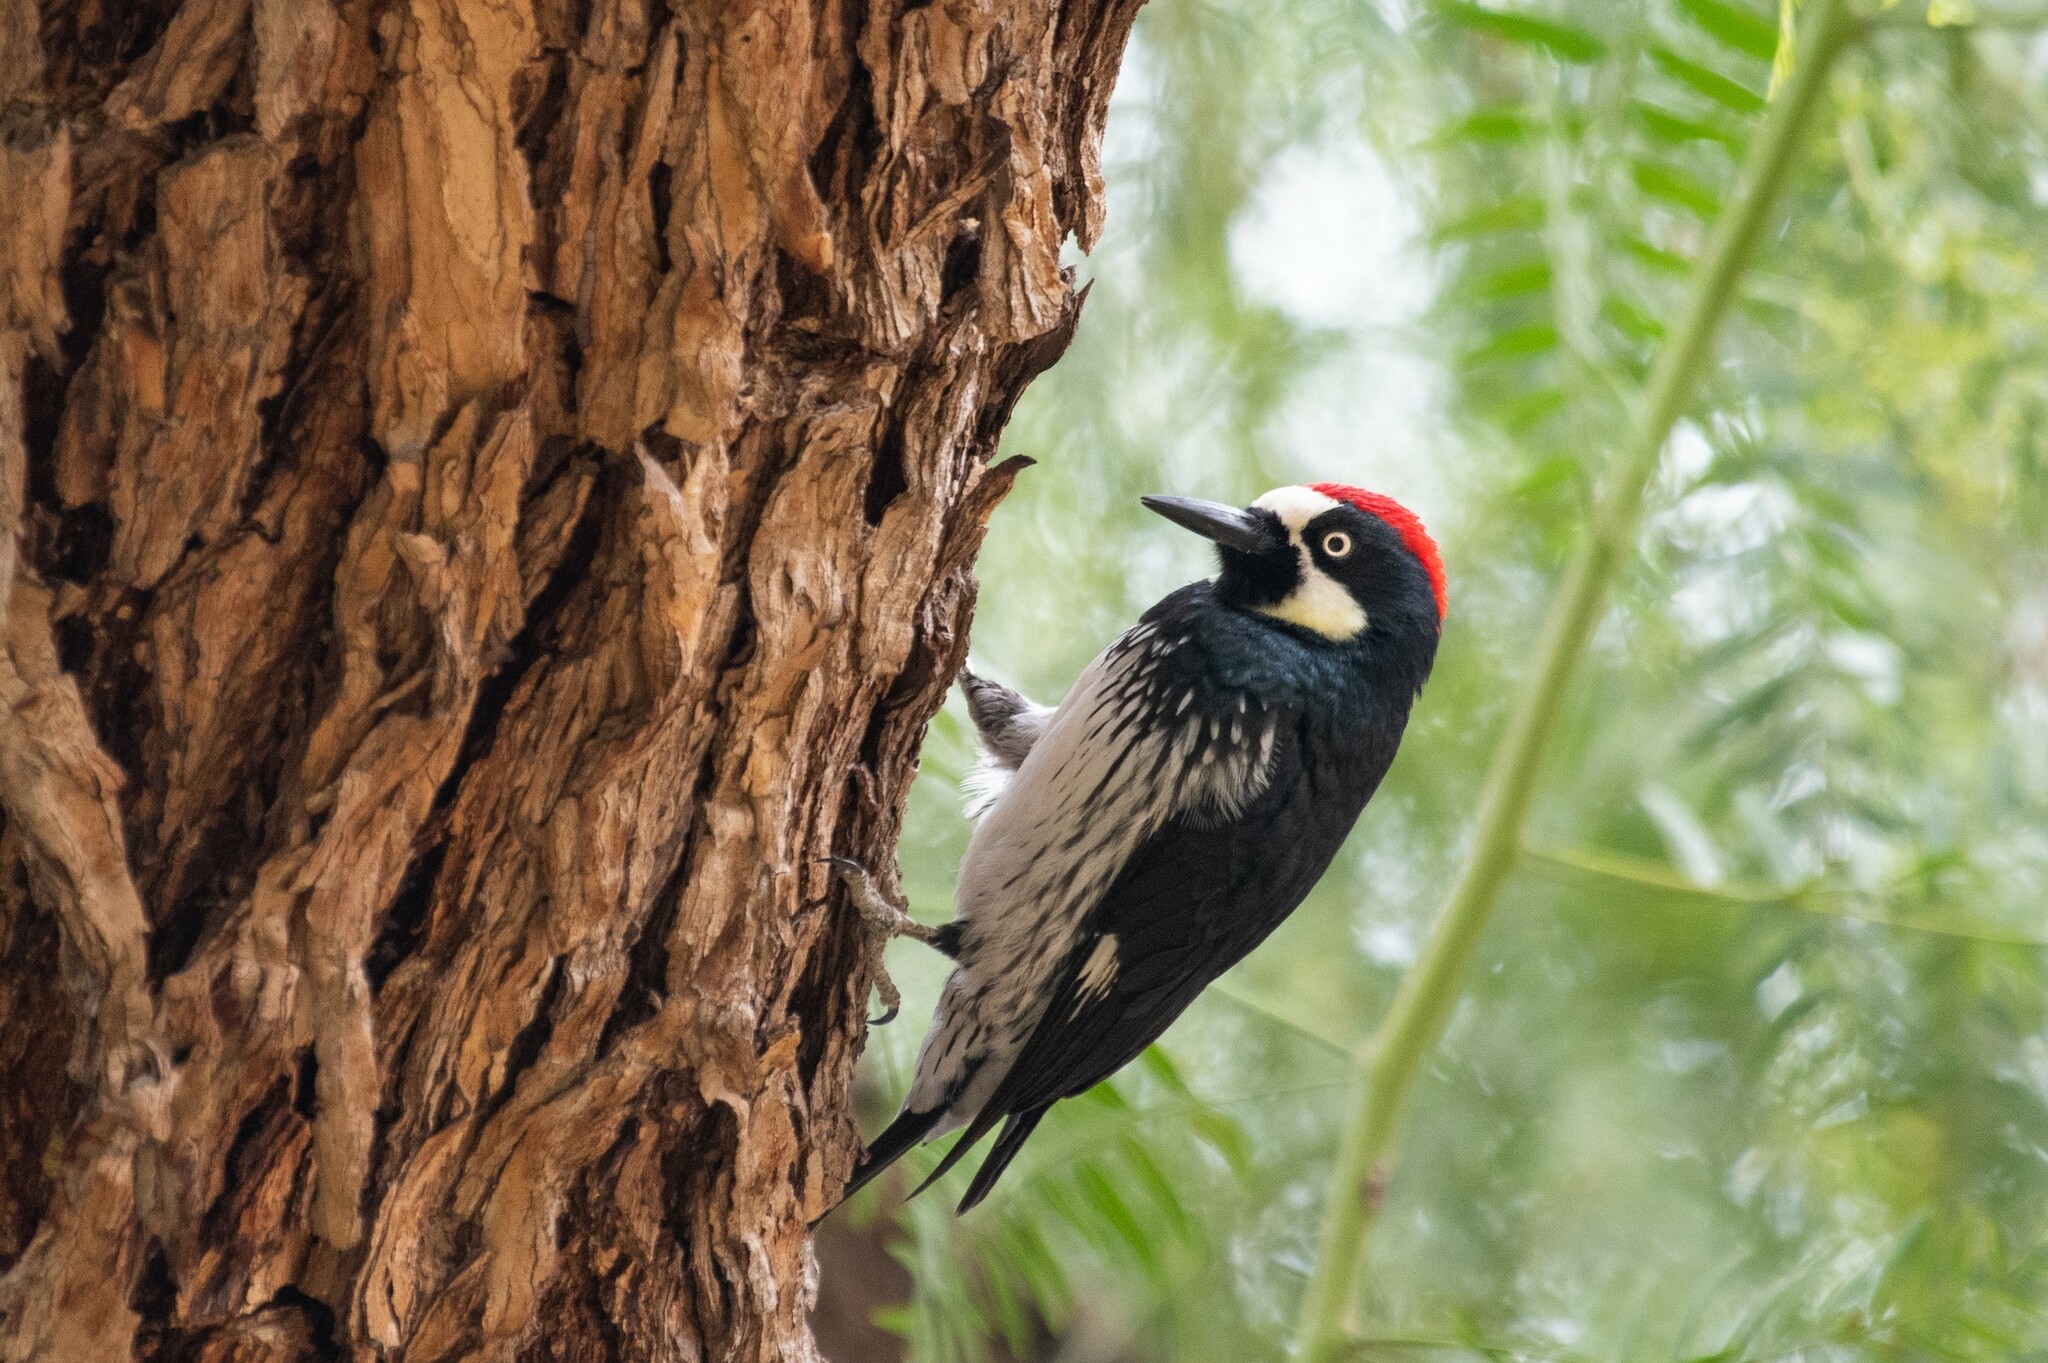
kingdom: Animalia
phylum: Chordata
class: Aves
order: Piciformes
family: Picidae
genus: Melanerpes
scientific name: Melanerpes formicivorus
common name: Acorn woodpecker
